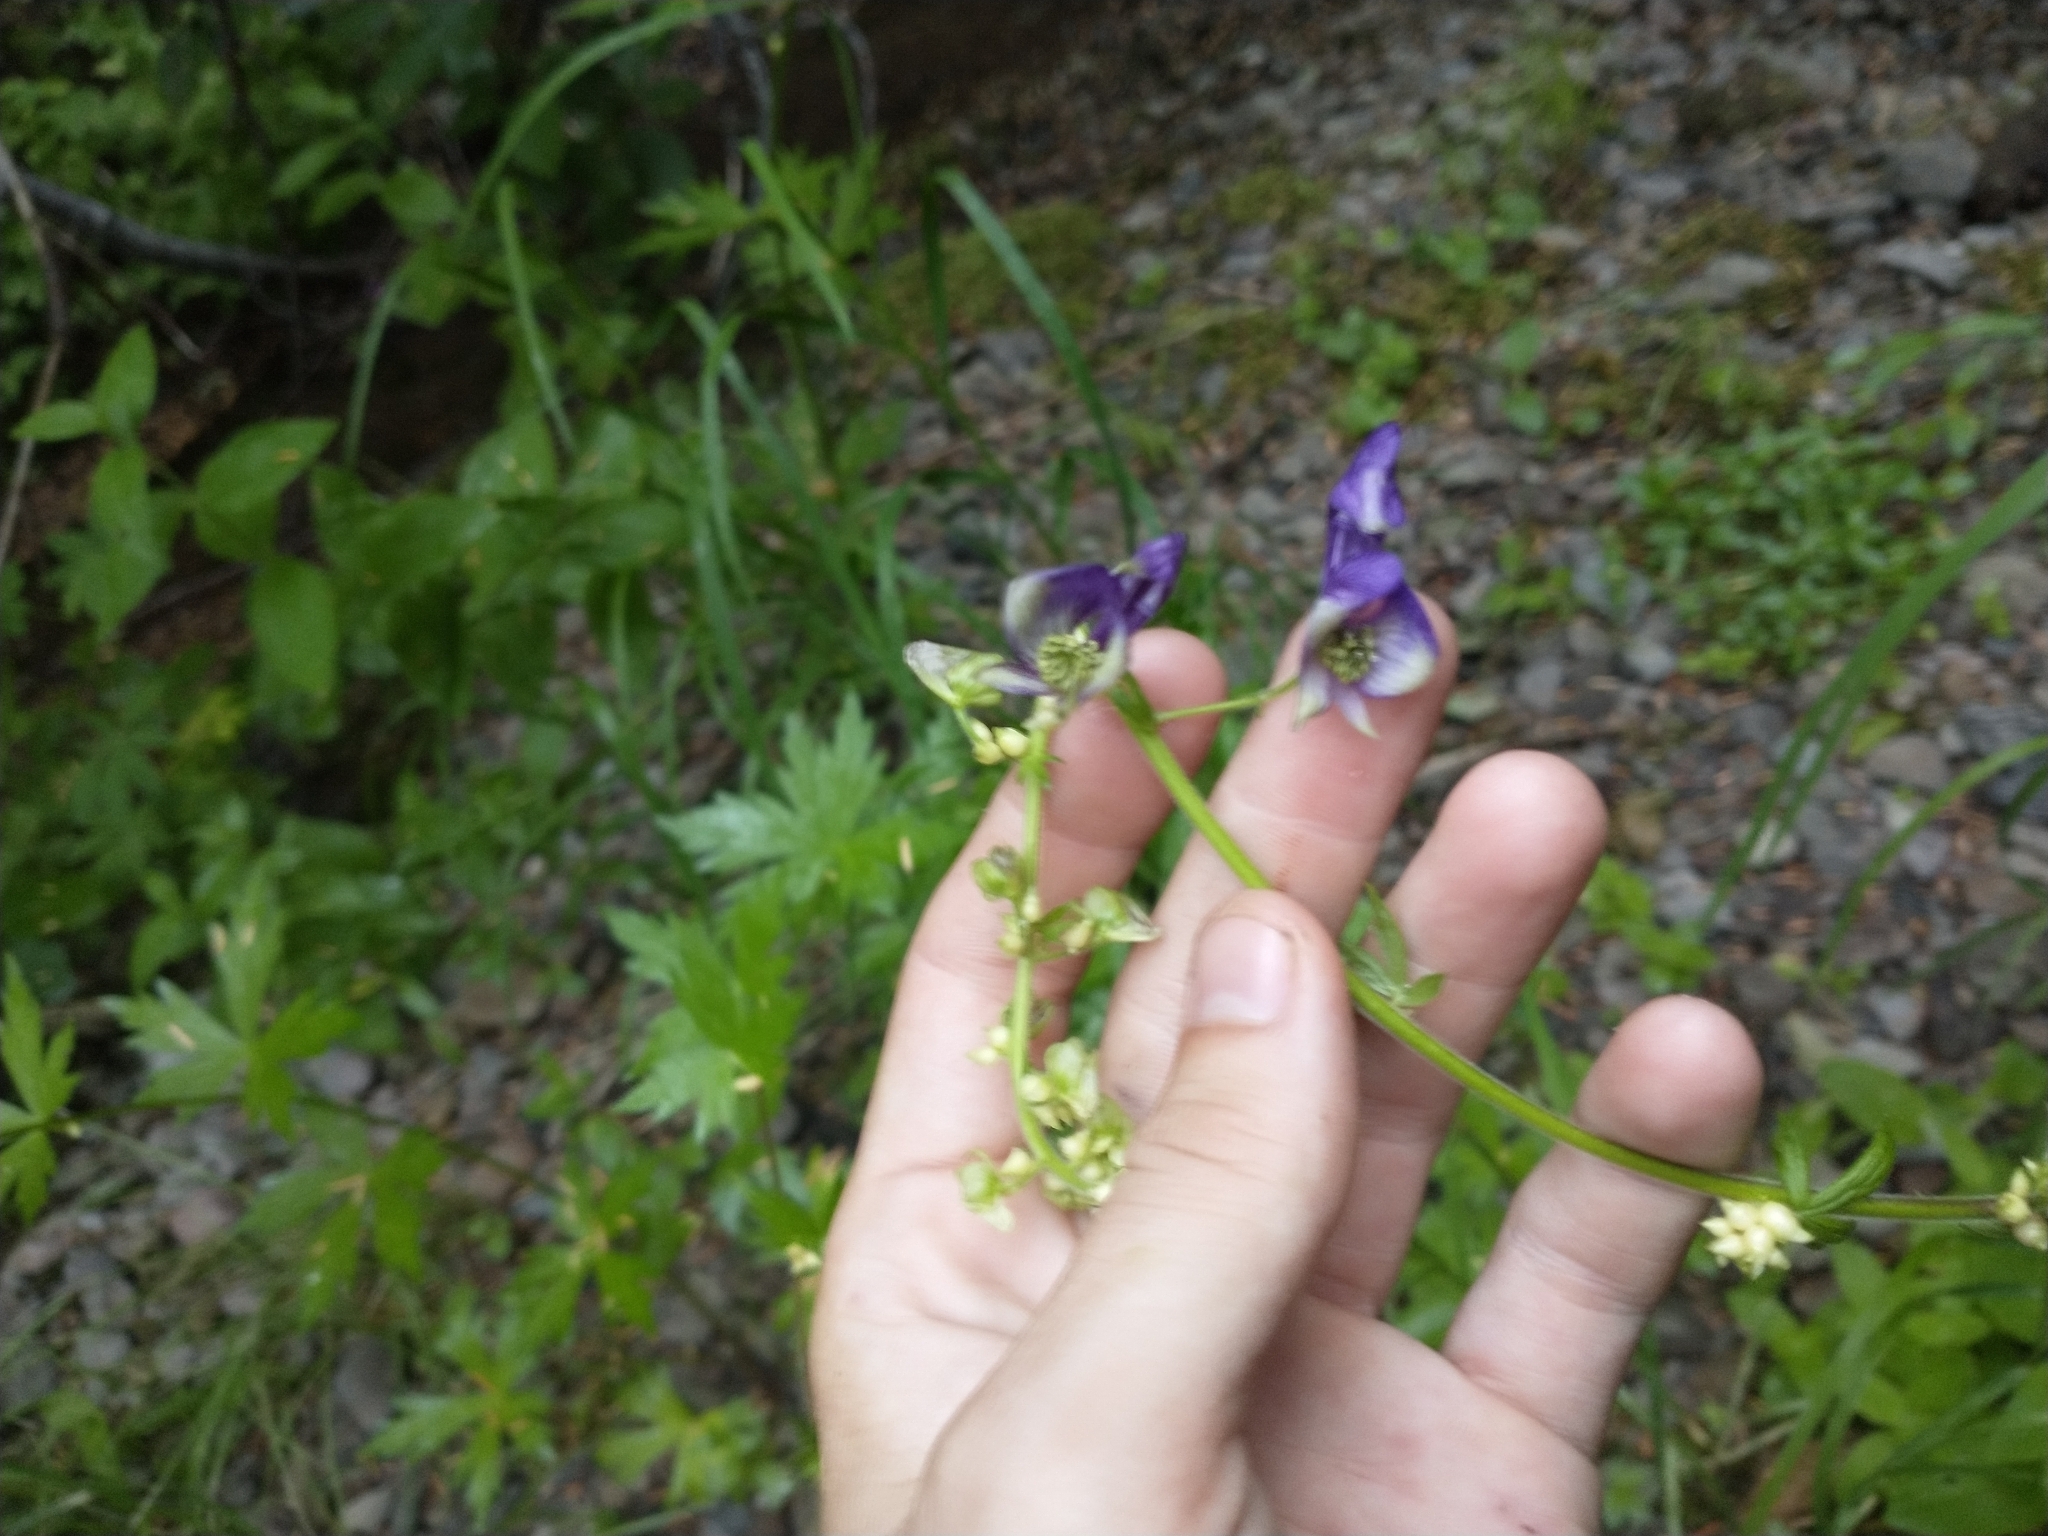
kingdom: Plantae
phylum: Tracheophyta
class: Magnoliopsida
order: Ranunculales
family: Ranunculaceae
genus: Aconitum
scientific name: Aconitum columbianum
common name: Columbia aconite
